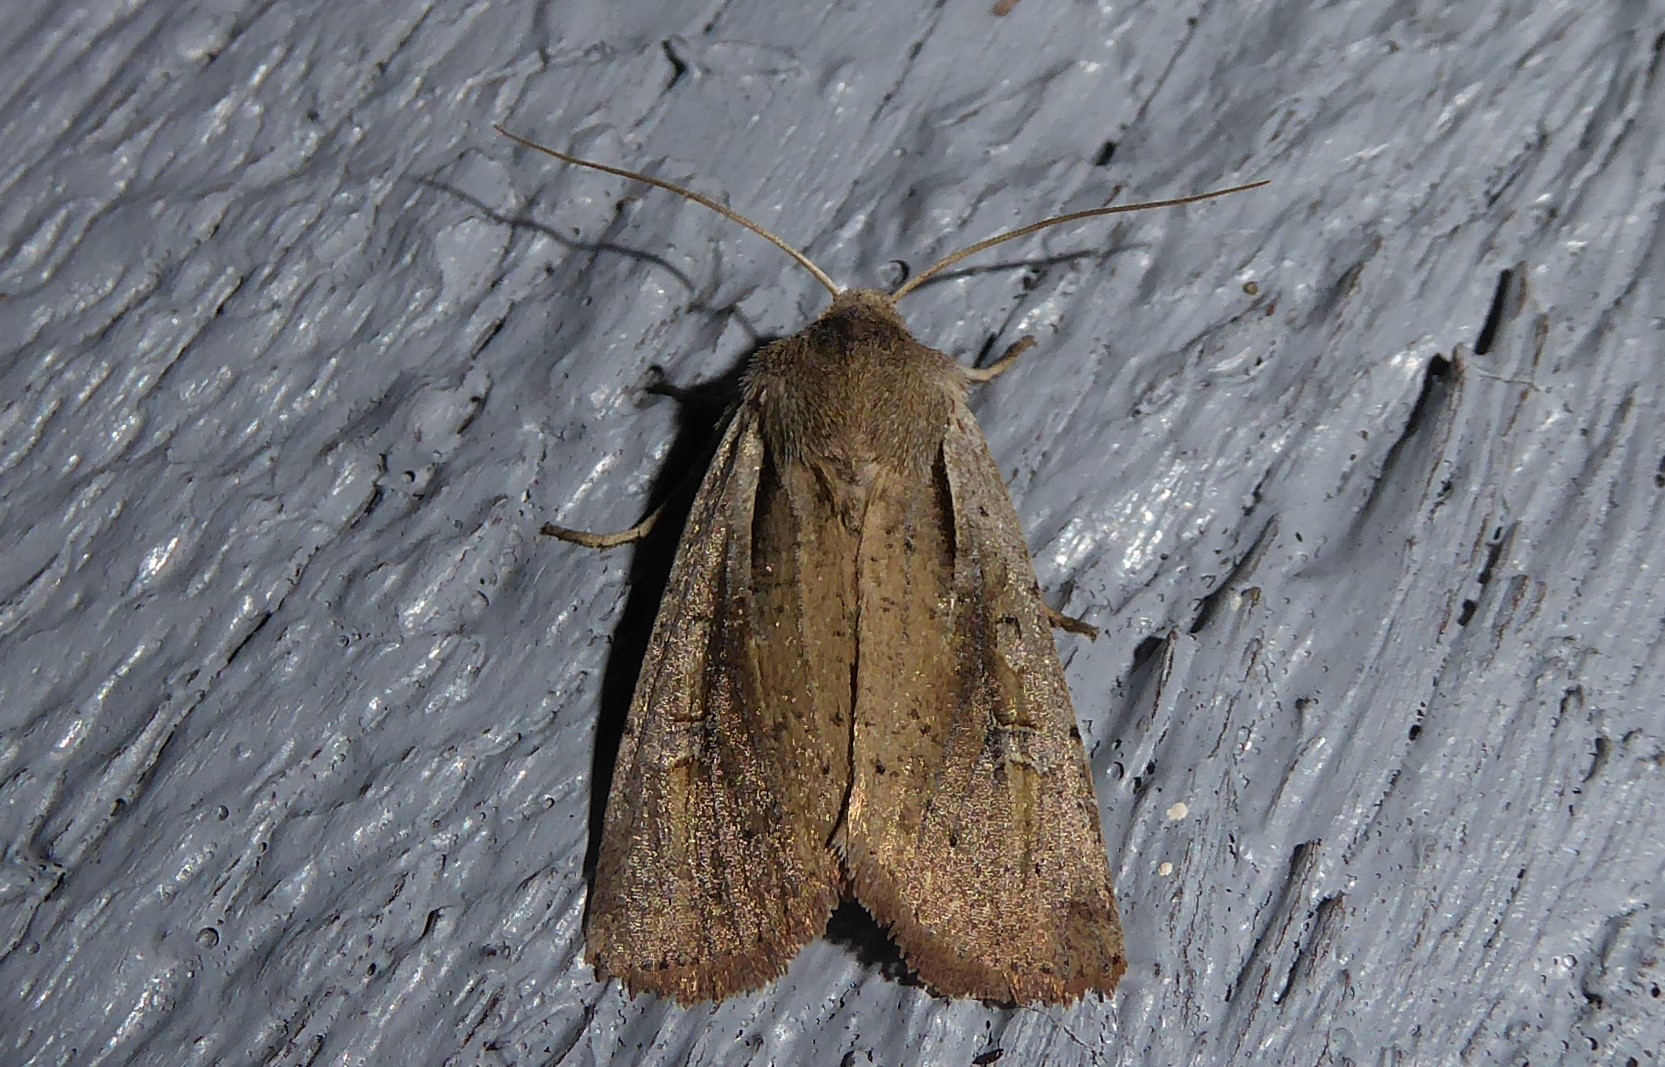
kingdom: Animalia
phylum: Arthropoda
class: Insecta
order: Lepidoptera
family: Noctuidae
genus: Ichneutica
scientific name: Ichneutica atristriga
